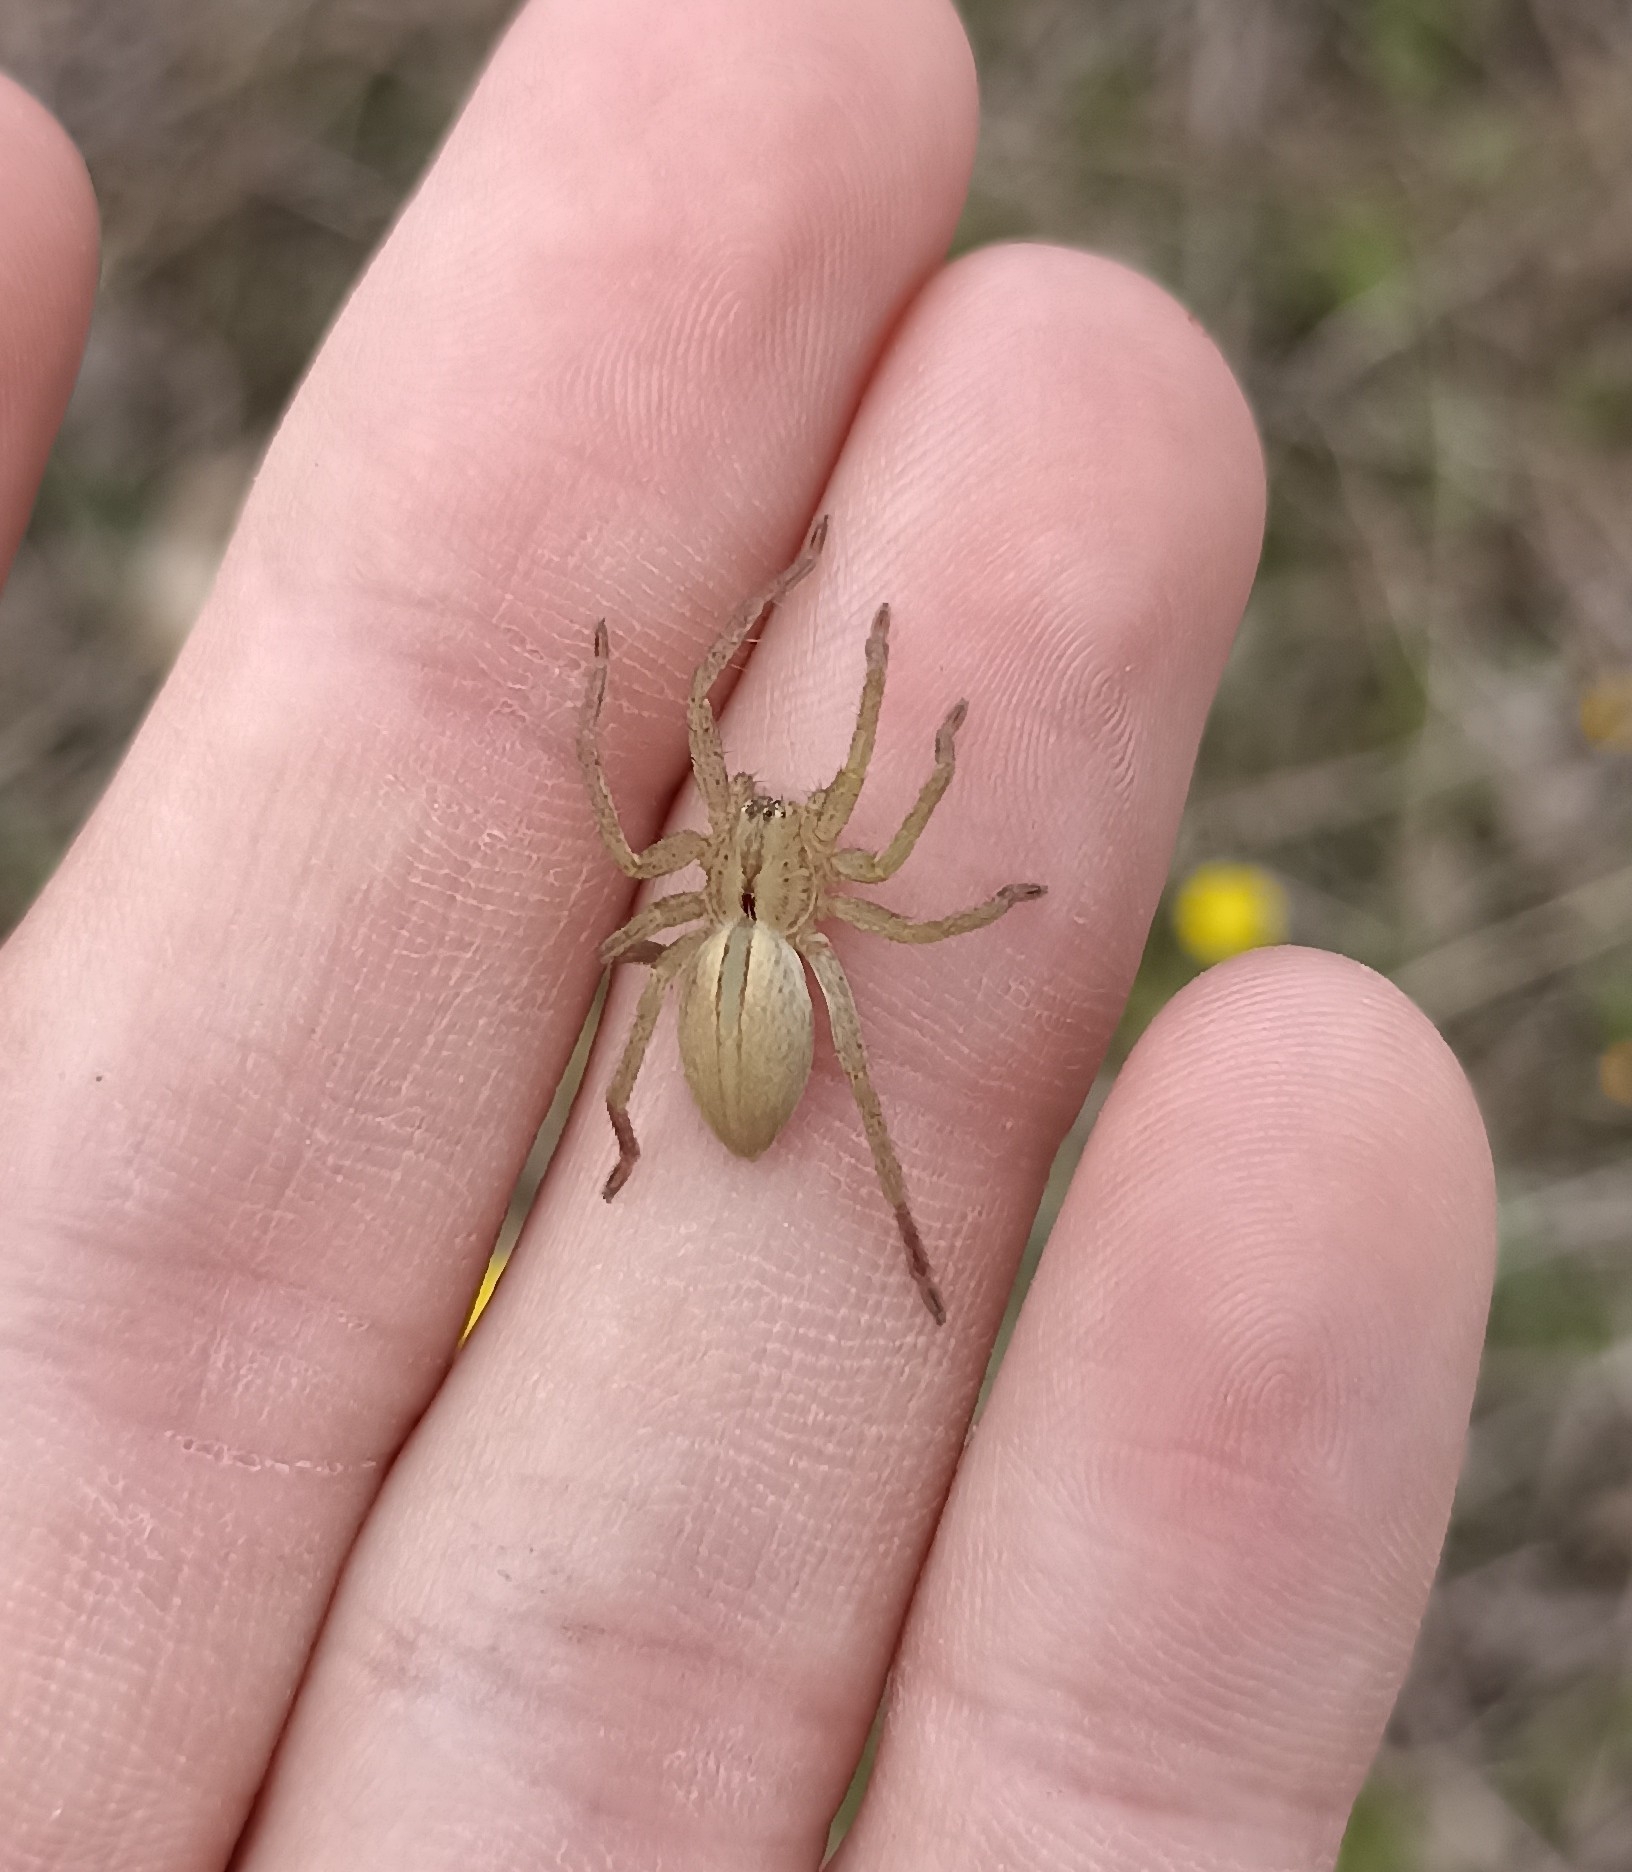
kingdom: Animalia
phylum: Arthropoda
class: Arachnida
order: Araneae
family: Sparassidae
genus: Micrommata
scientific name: Micrommata ligurina
